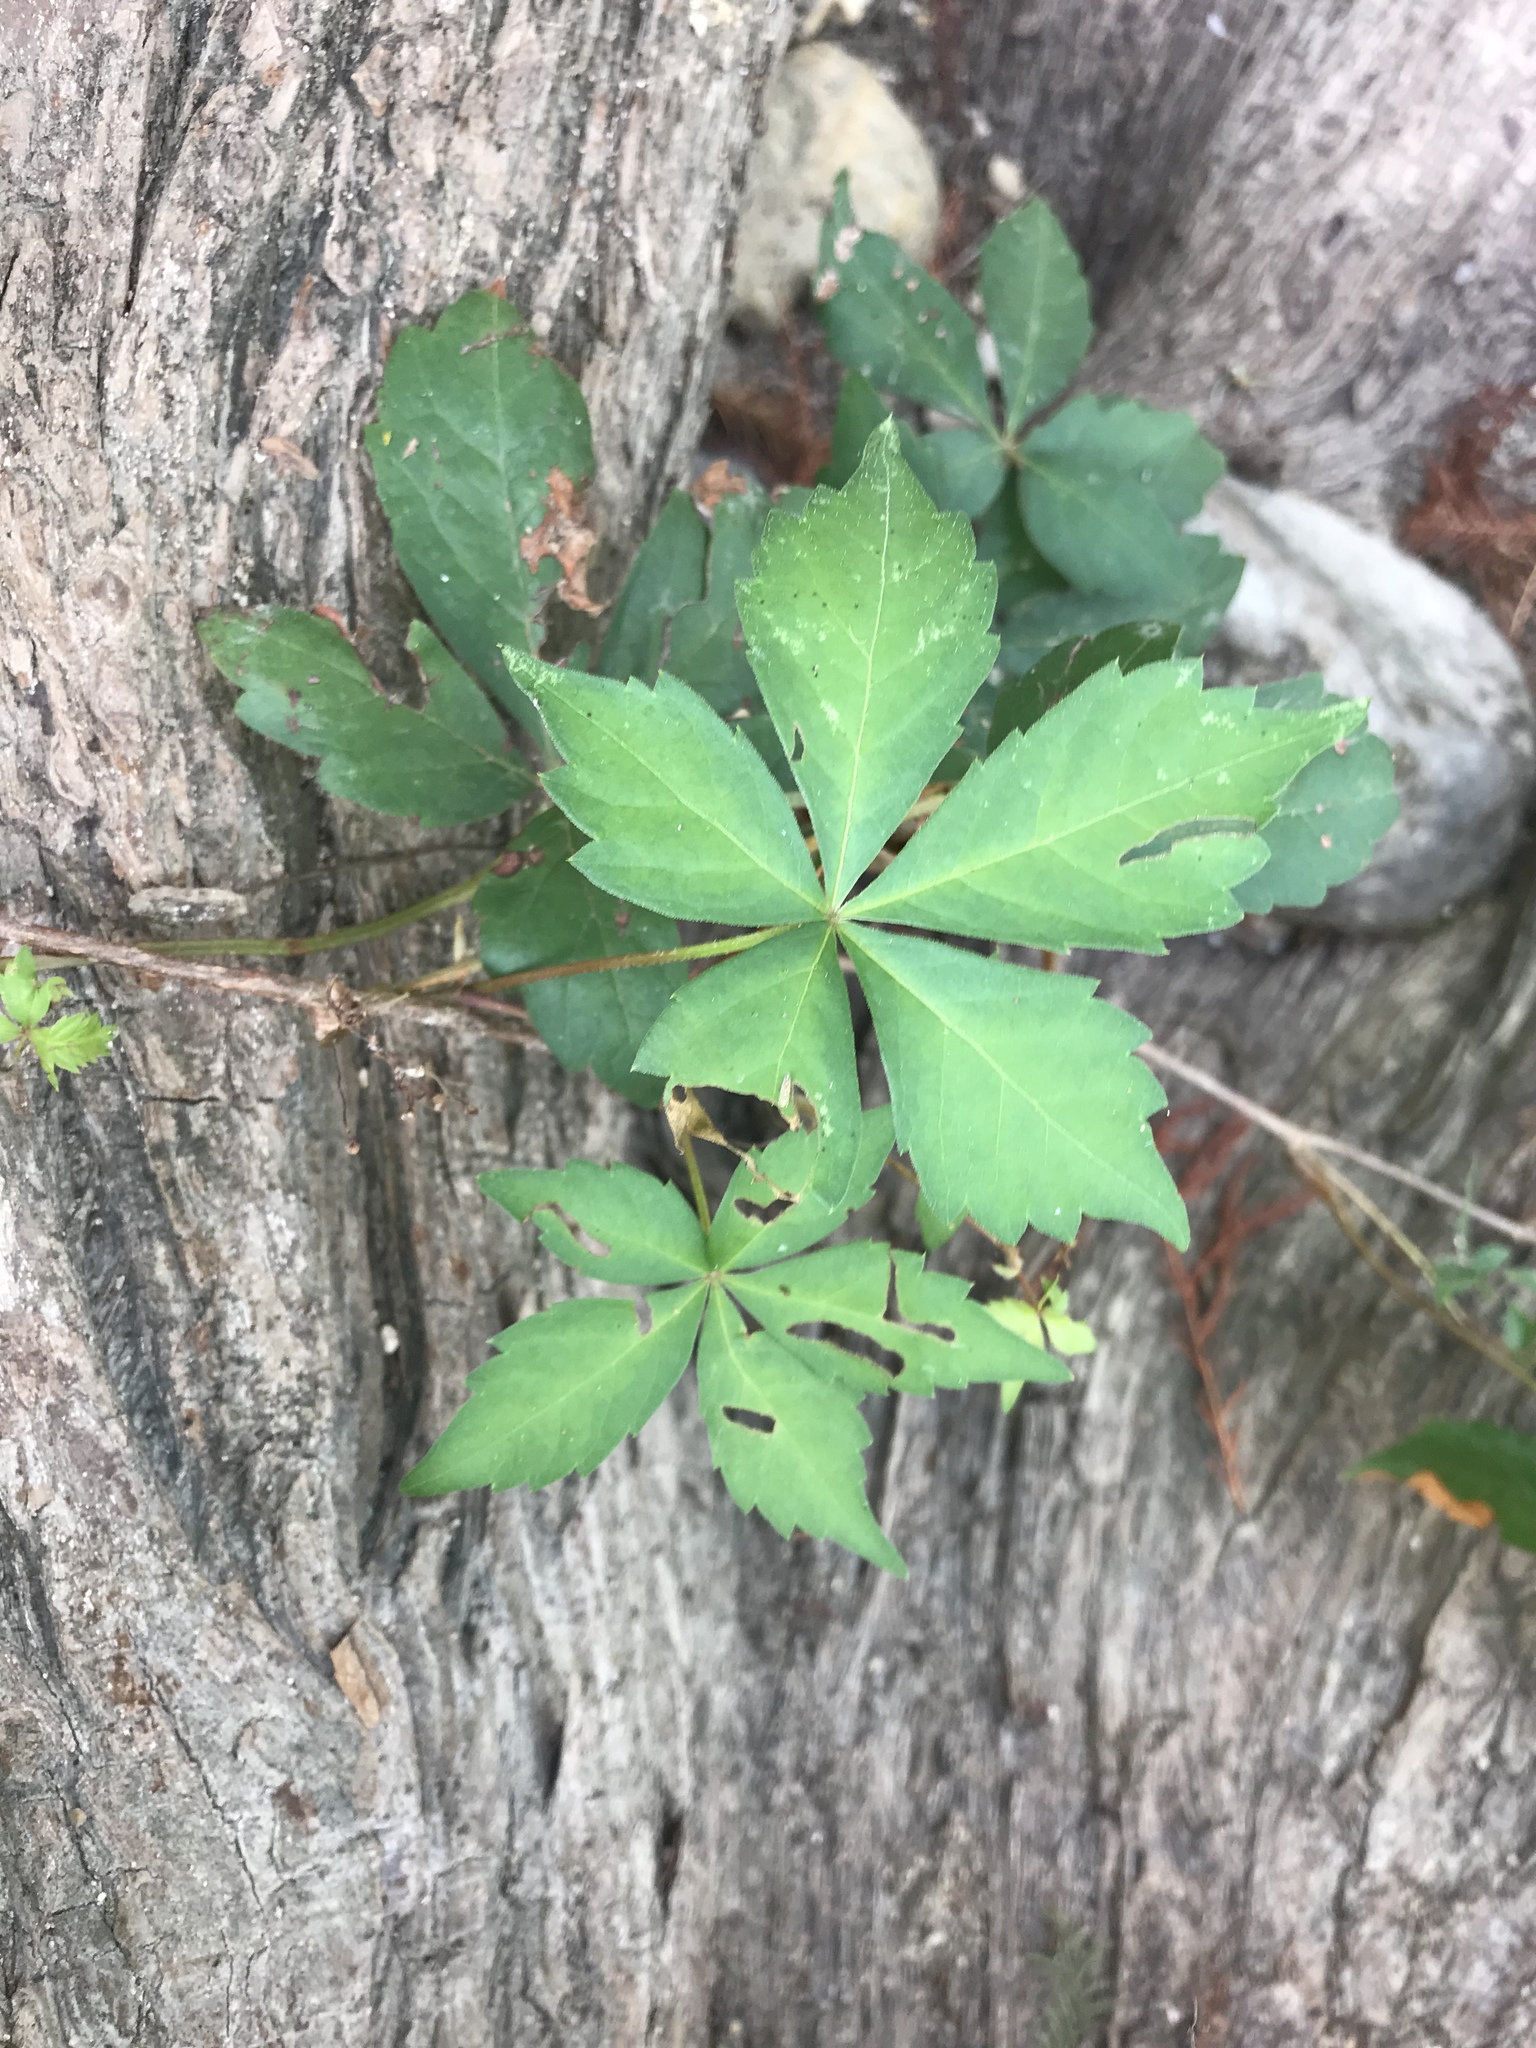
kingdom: Plantae
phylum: Tracheophyta
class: Magnoliopsida
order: Vitales
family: Vitaceae
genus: Parthenocissus
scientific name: Parthenocissus quinquefolia
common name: Virginia-creeper
